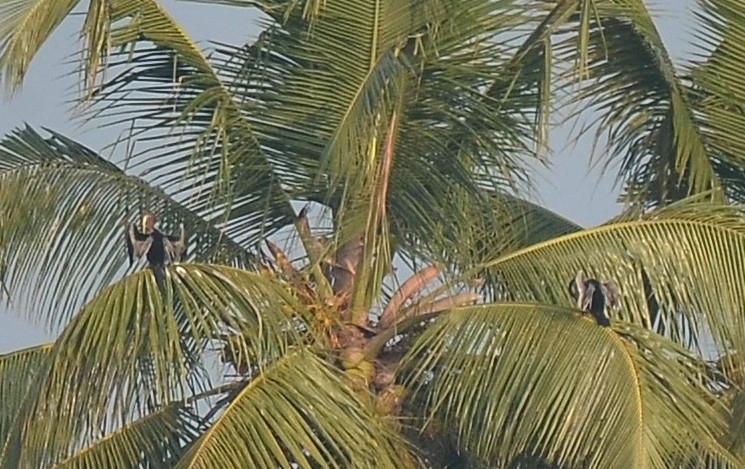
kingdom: Animalia
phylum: Chordata
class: Aves
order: Suliformes
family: Anhingidae
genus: Anhinga
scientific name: Anhinga melanogaster
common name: Oriental darter
